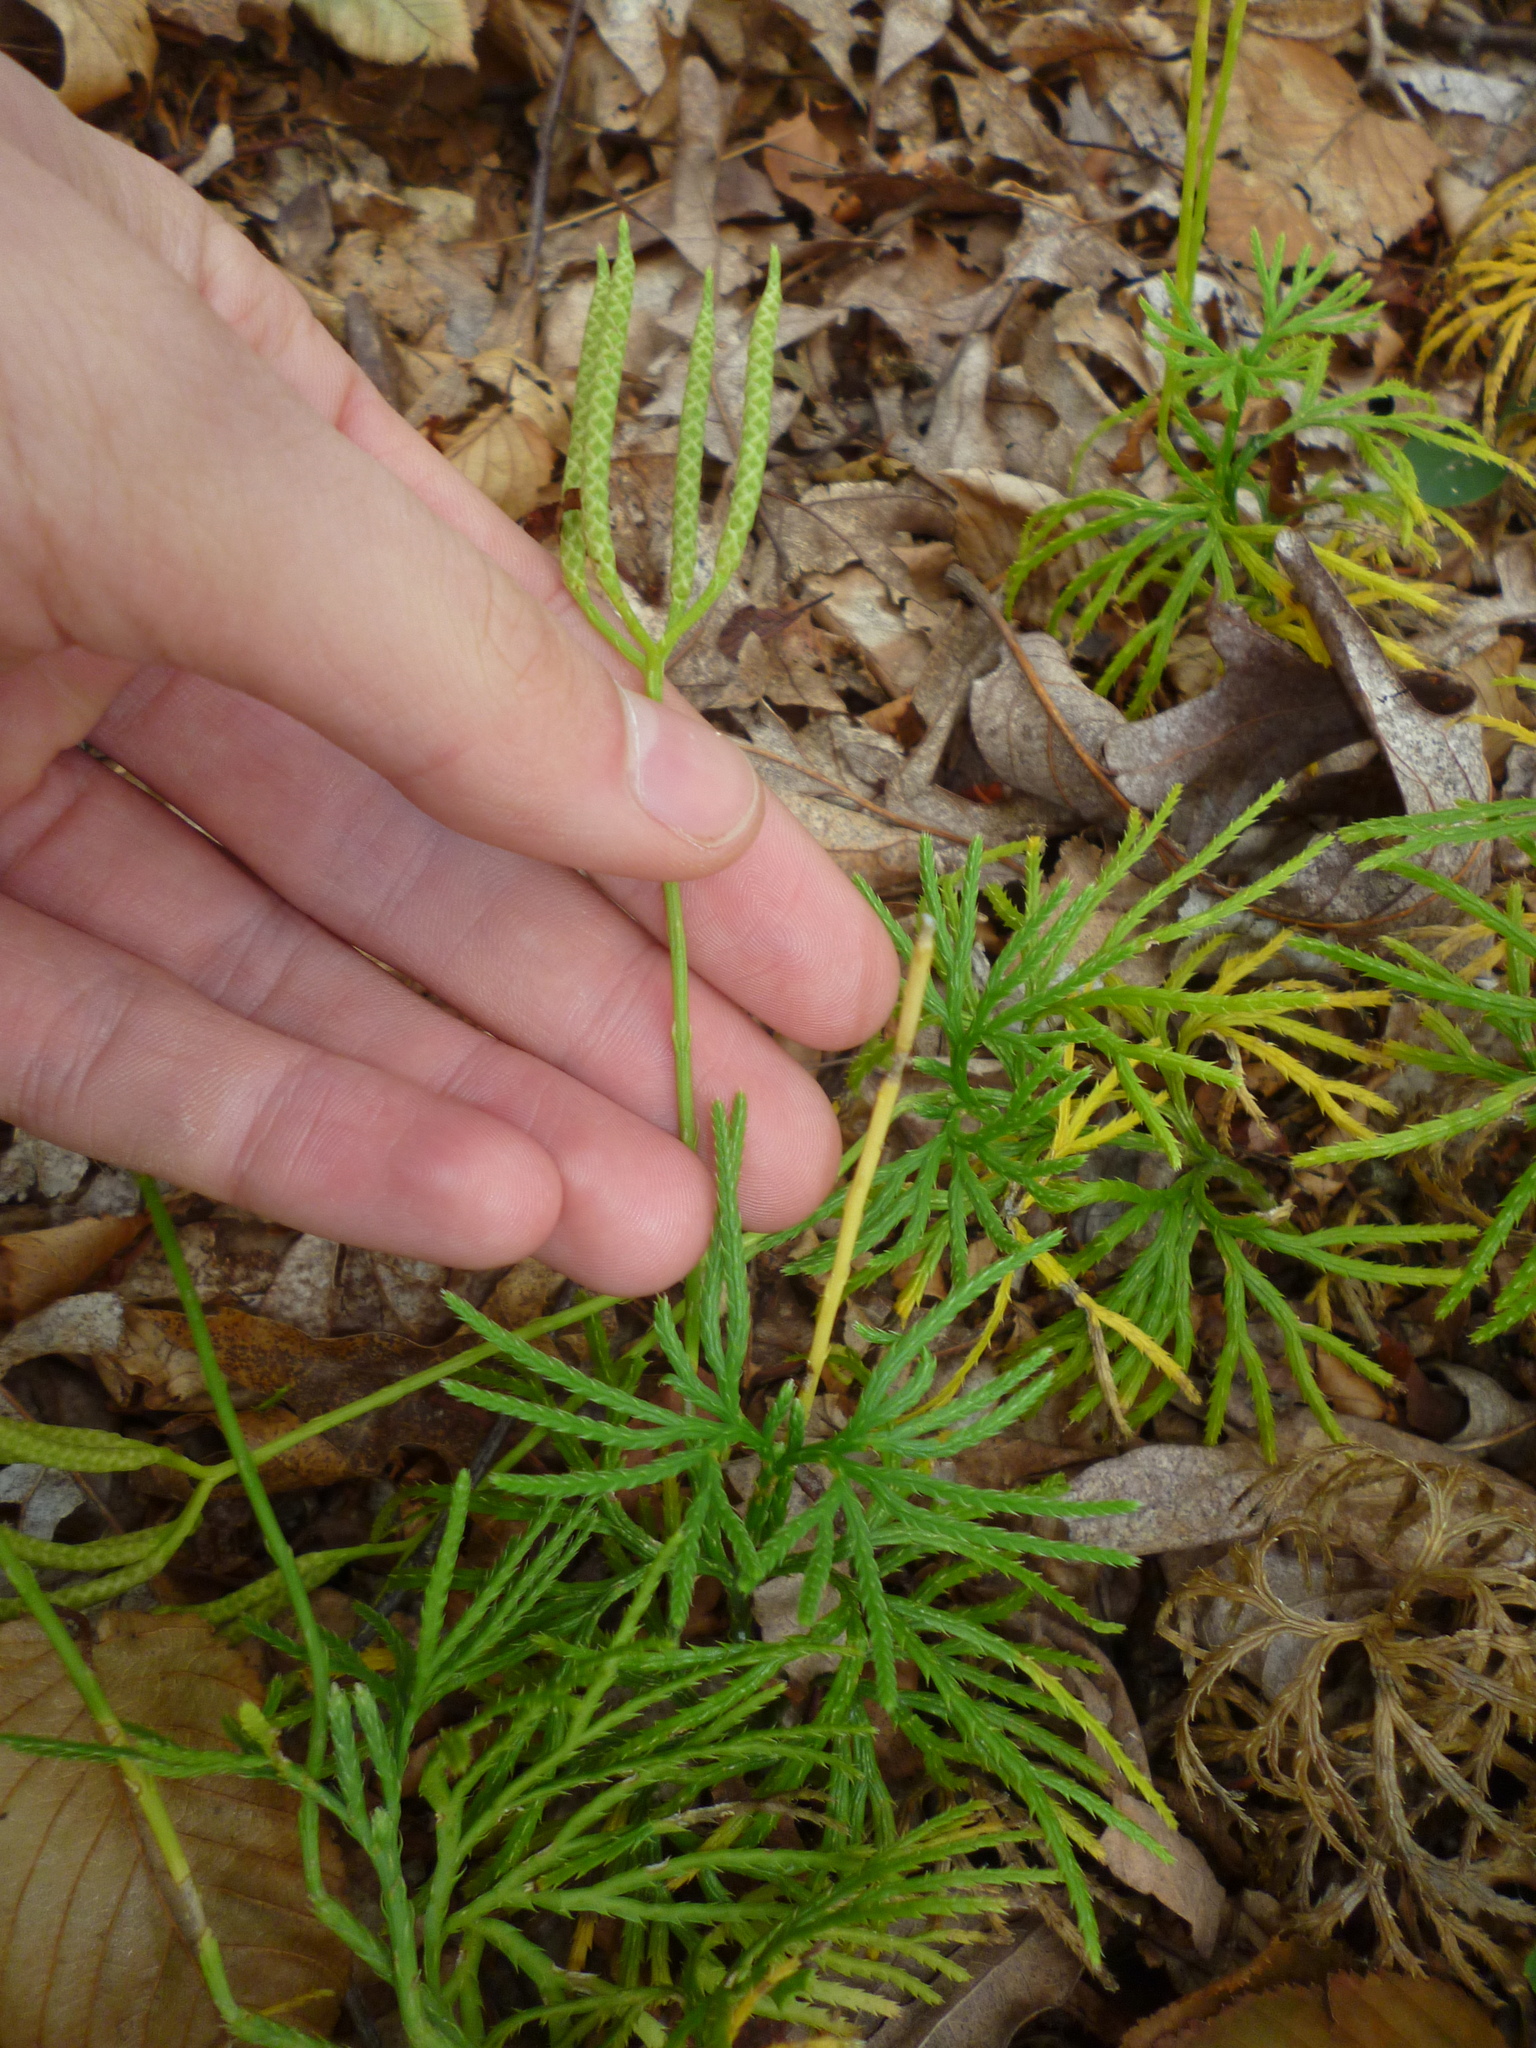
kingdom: Plantae
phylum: Tracheophyta
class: Lycopodiopsida
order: Lycopodiales
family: Lycopodiaceae
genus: Diphasiastrum
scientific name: Diphasiastrum digitatum
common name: Southern running-pine
